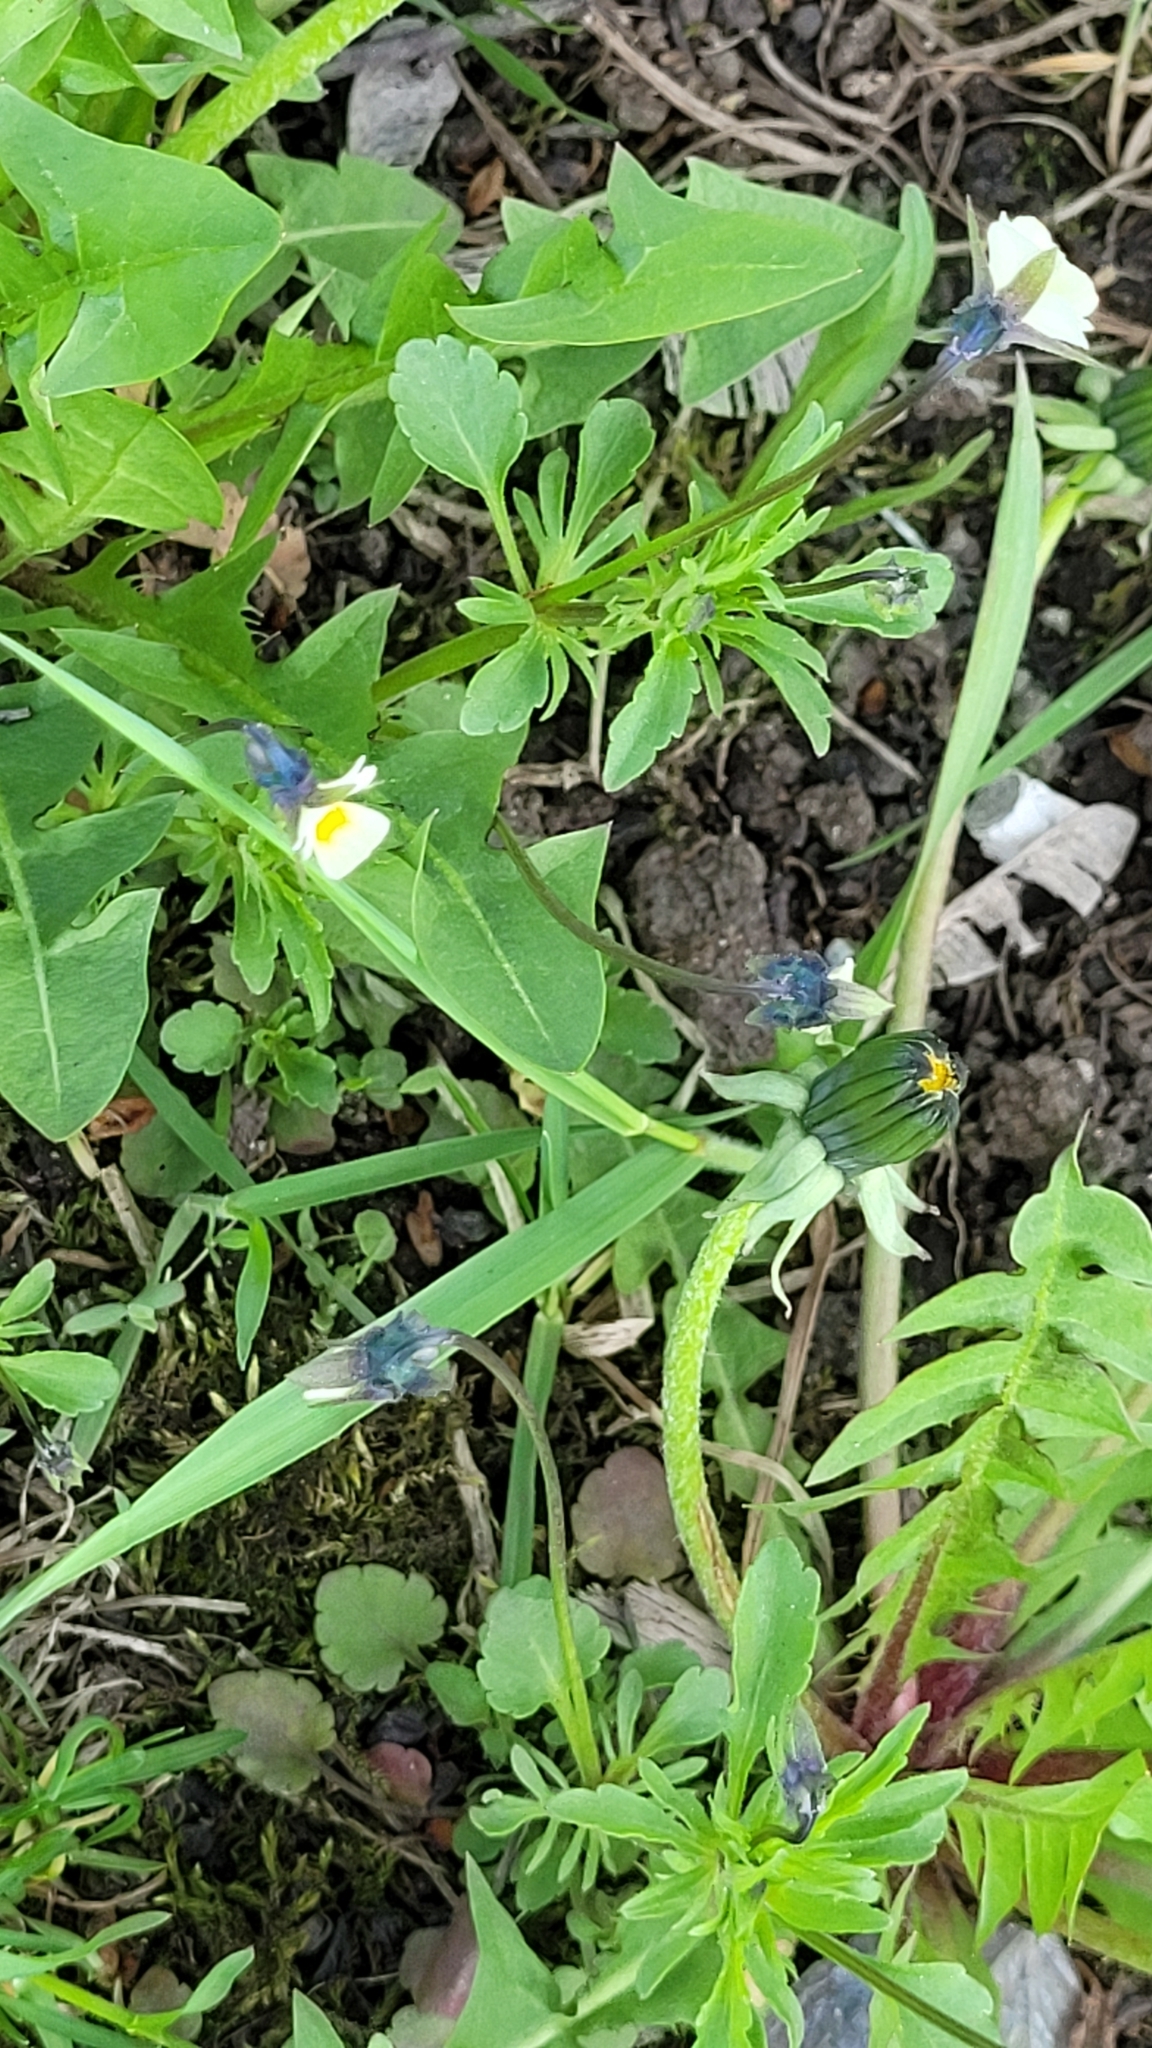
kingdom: Plantae
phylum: Tracheophyta
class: Magnoliopsida
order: Malpighiales
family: Violaceae
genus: Viola
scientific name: Viola arvensis
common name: Field pansy
